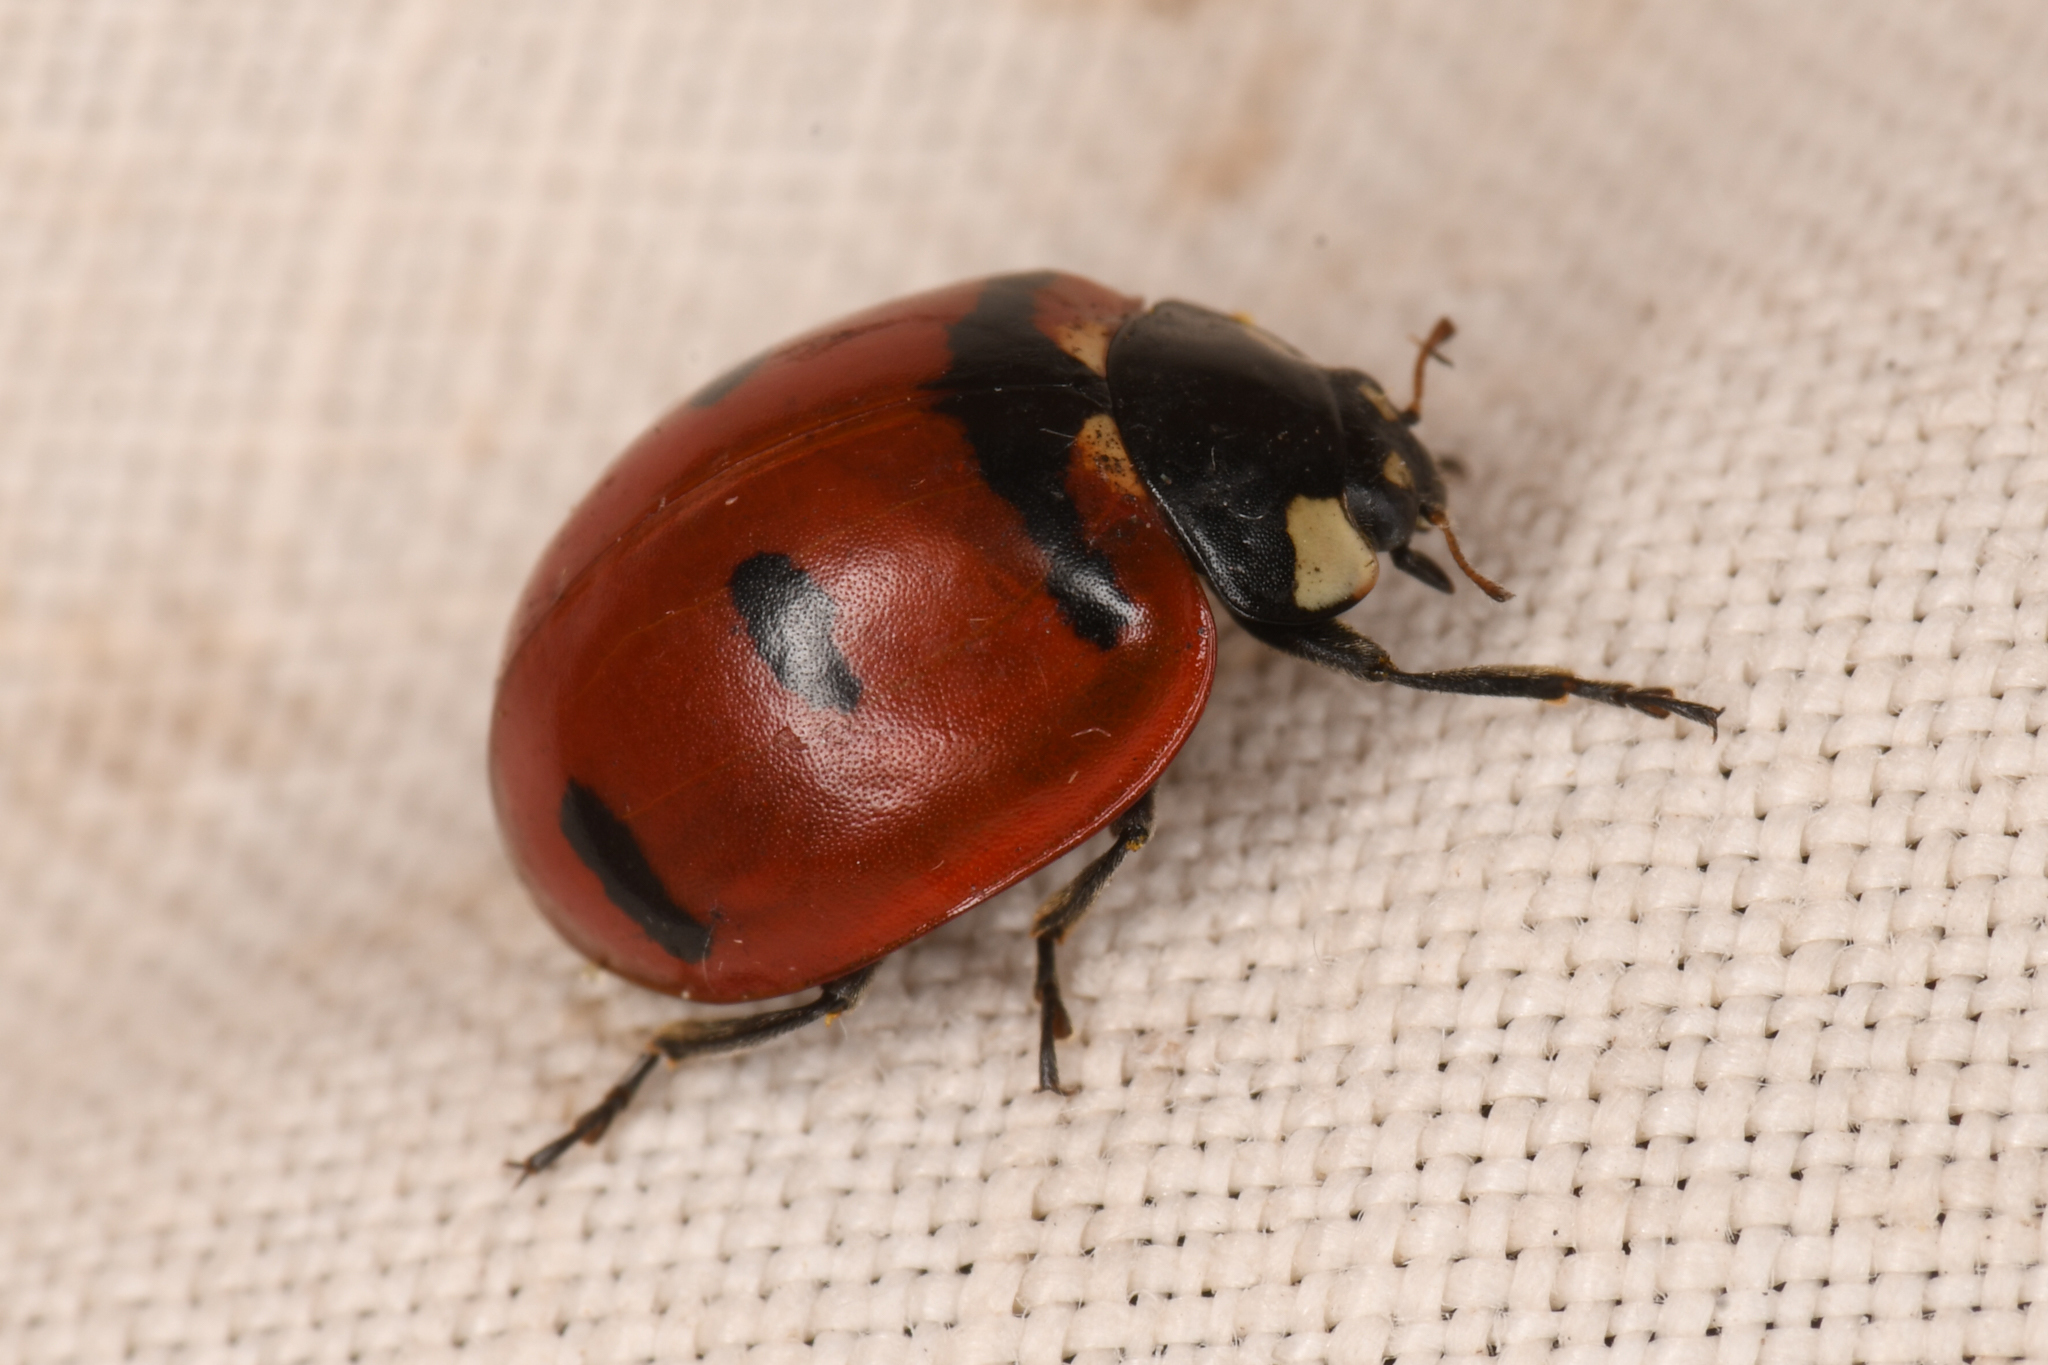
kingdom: Animalia
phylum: Arthropoda
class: Insecta
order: Coleoptera
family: Coccinellidae
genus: Coccinella
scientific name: Coccinella transversoguttata
